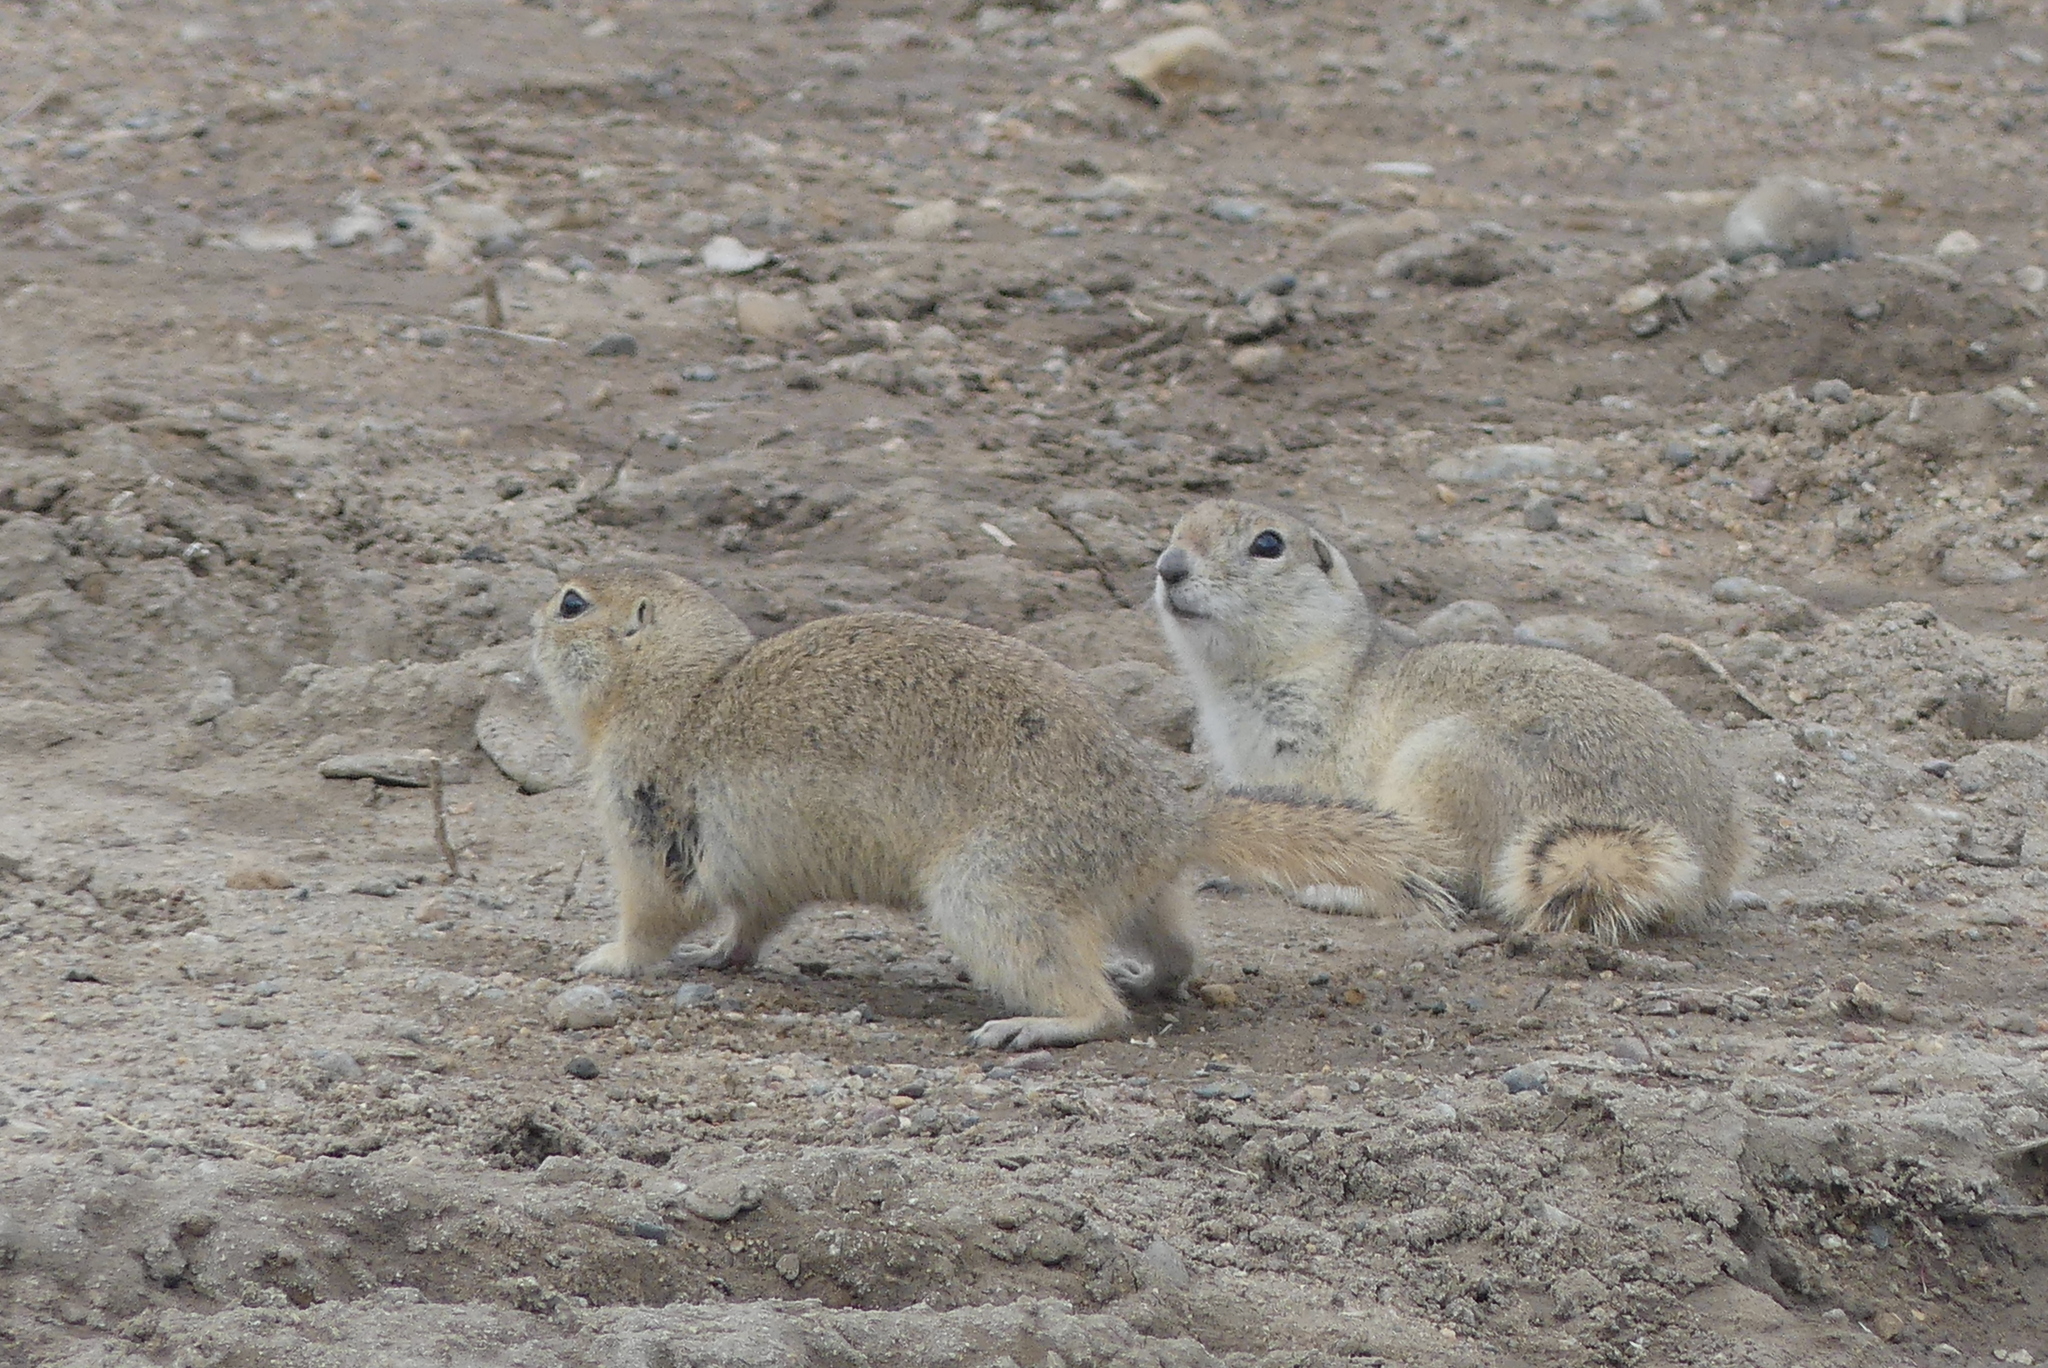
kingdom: Animalia
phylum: Chordata
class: Mammalia
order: Rodentia
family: Sciuridae
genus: Urocitellus
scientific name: Urocitellus richardsonii
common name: Richardson's ground squirrel
